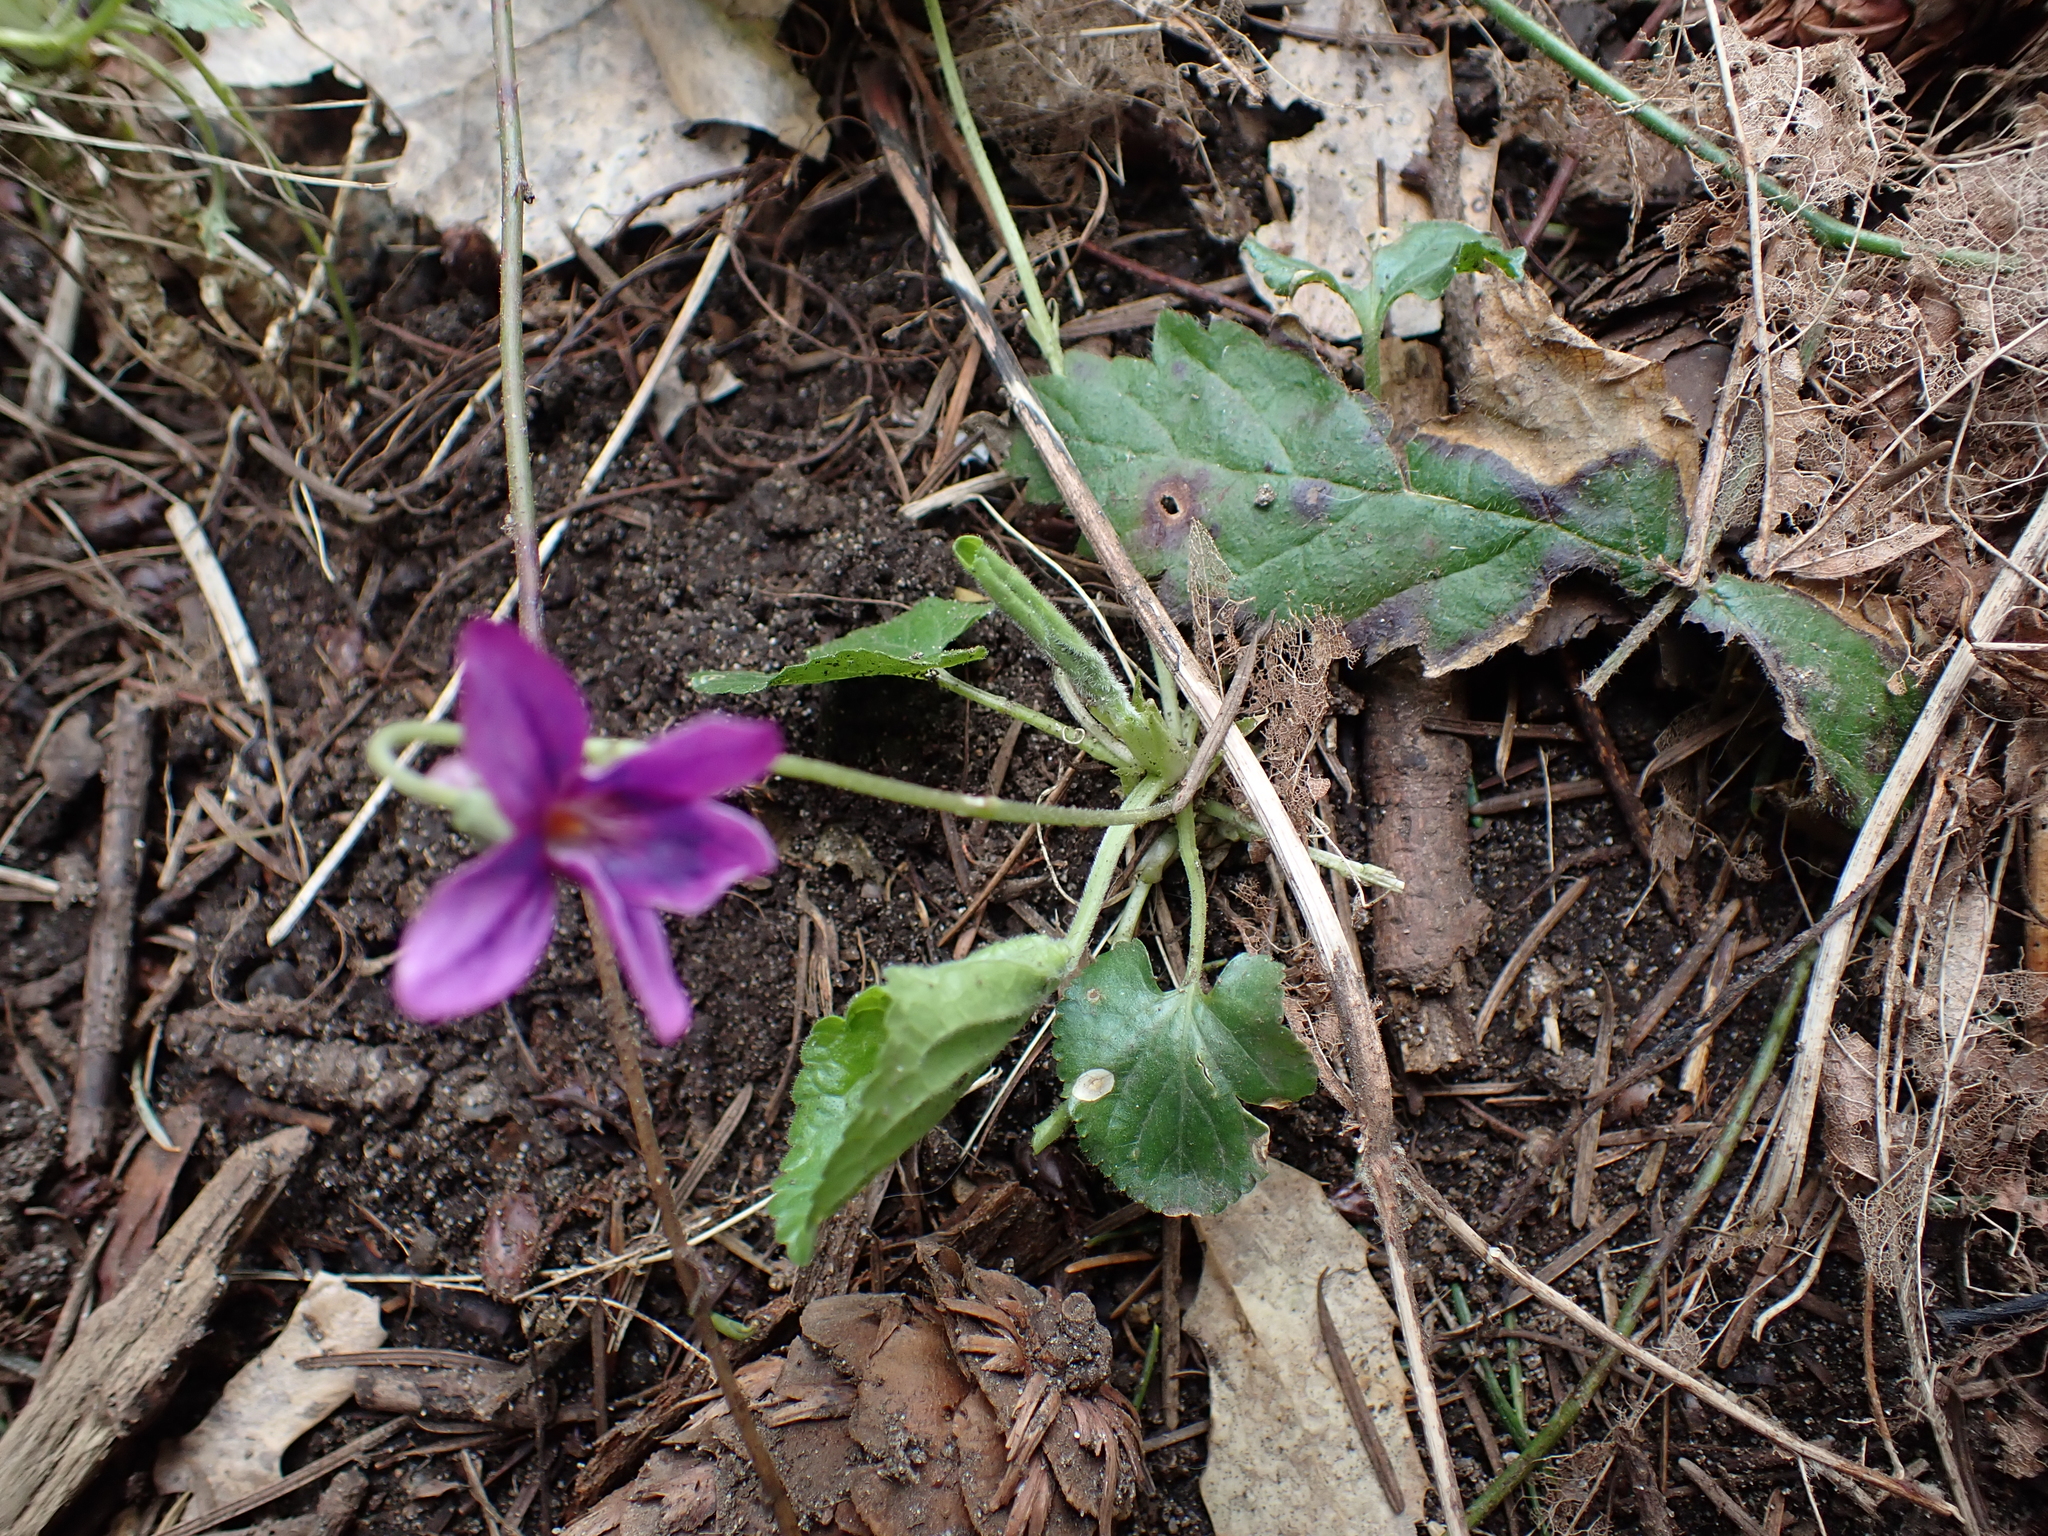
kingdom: Plantae
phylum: Tracheophyta
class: Magnoliopsida
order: Malpighiales
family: Violaceae
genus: Viola
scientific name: Viola odorata
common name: Sweet violet
